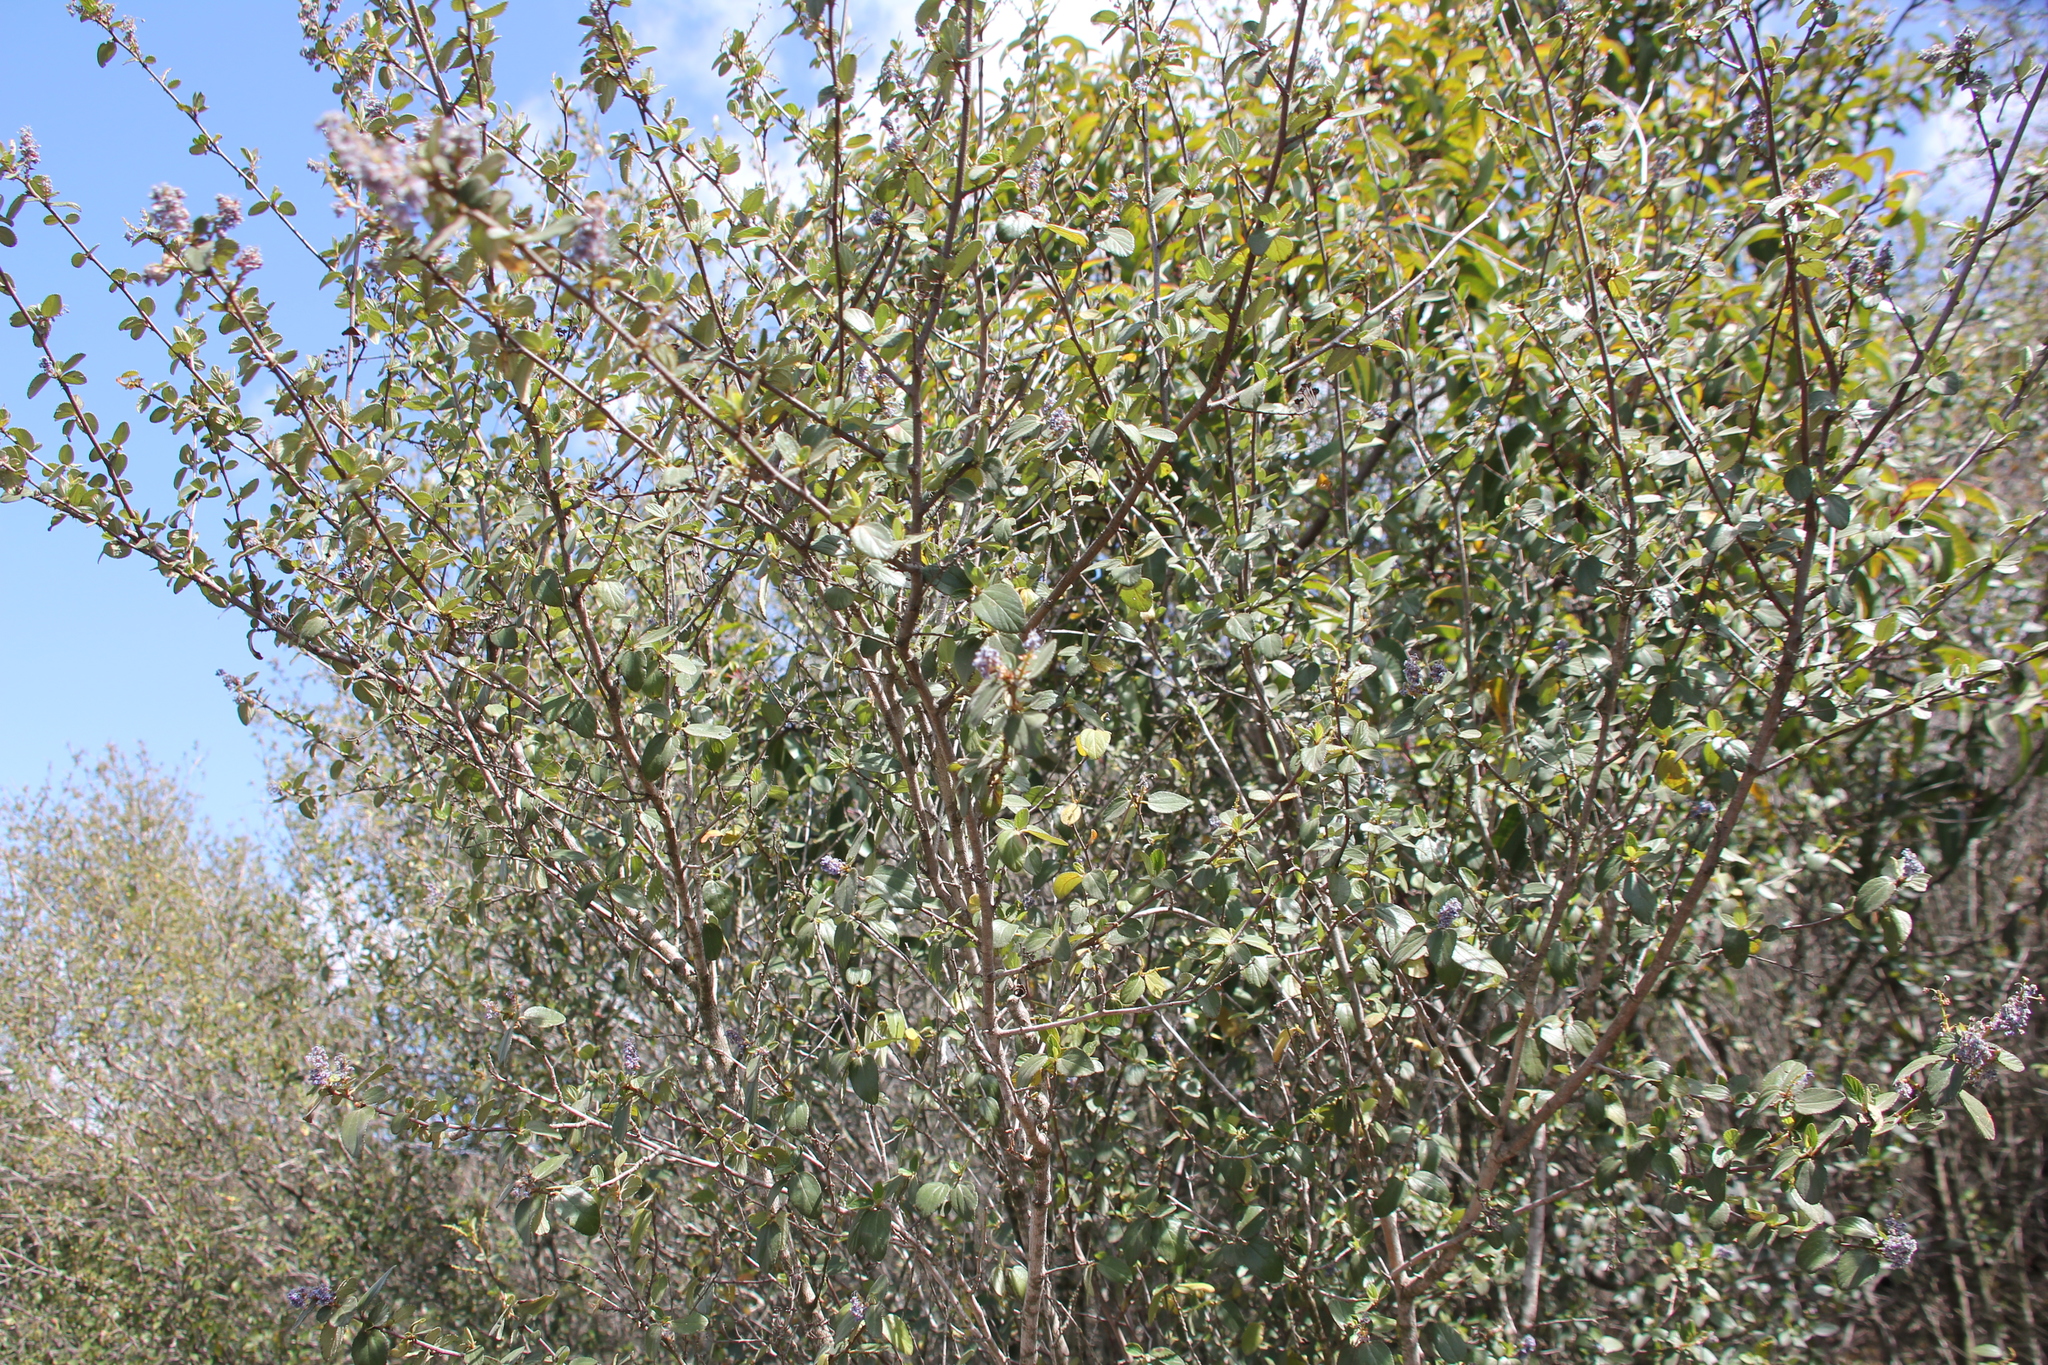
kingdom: Plantae
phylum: Tracheophyta
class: Magnoliopsida
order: Rosales
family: Rhamnaceae
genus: Ceanothus
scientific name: Ceanothus tomentosus
